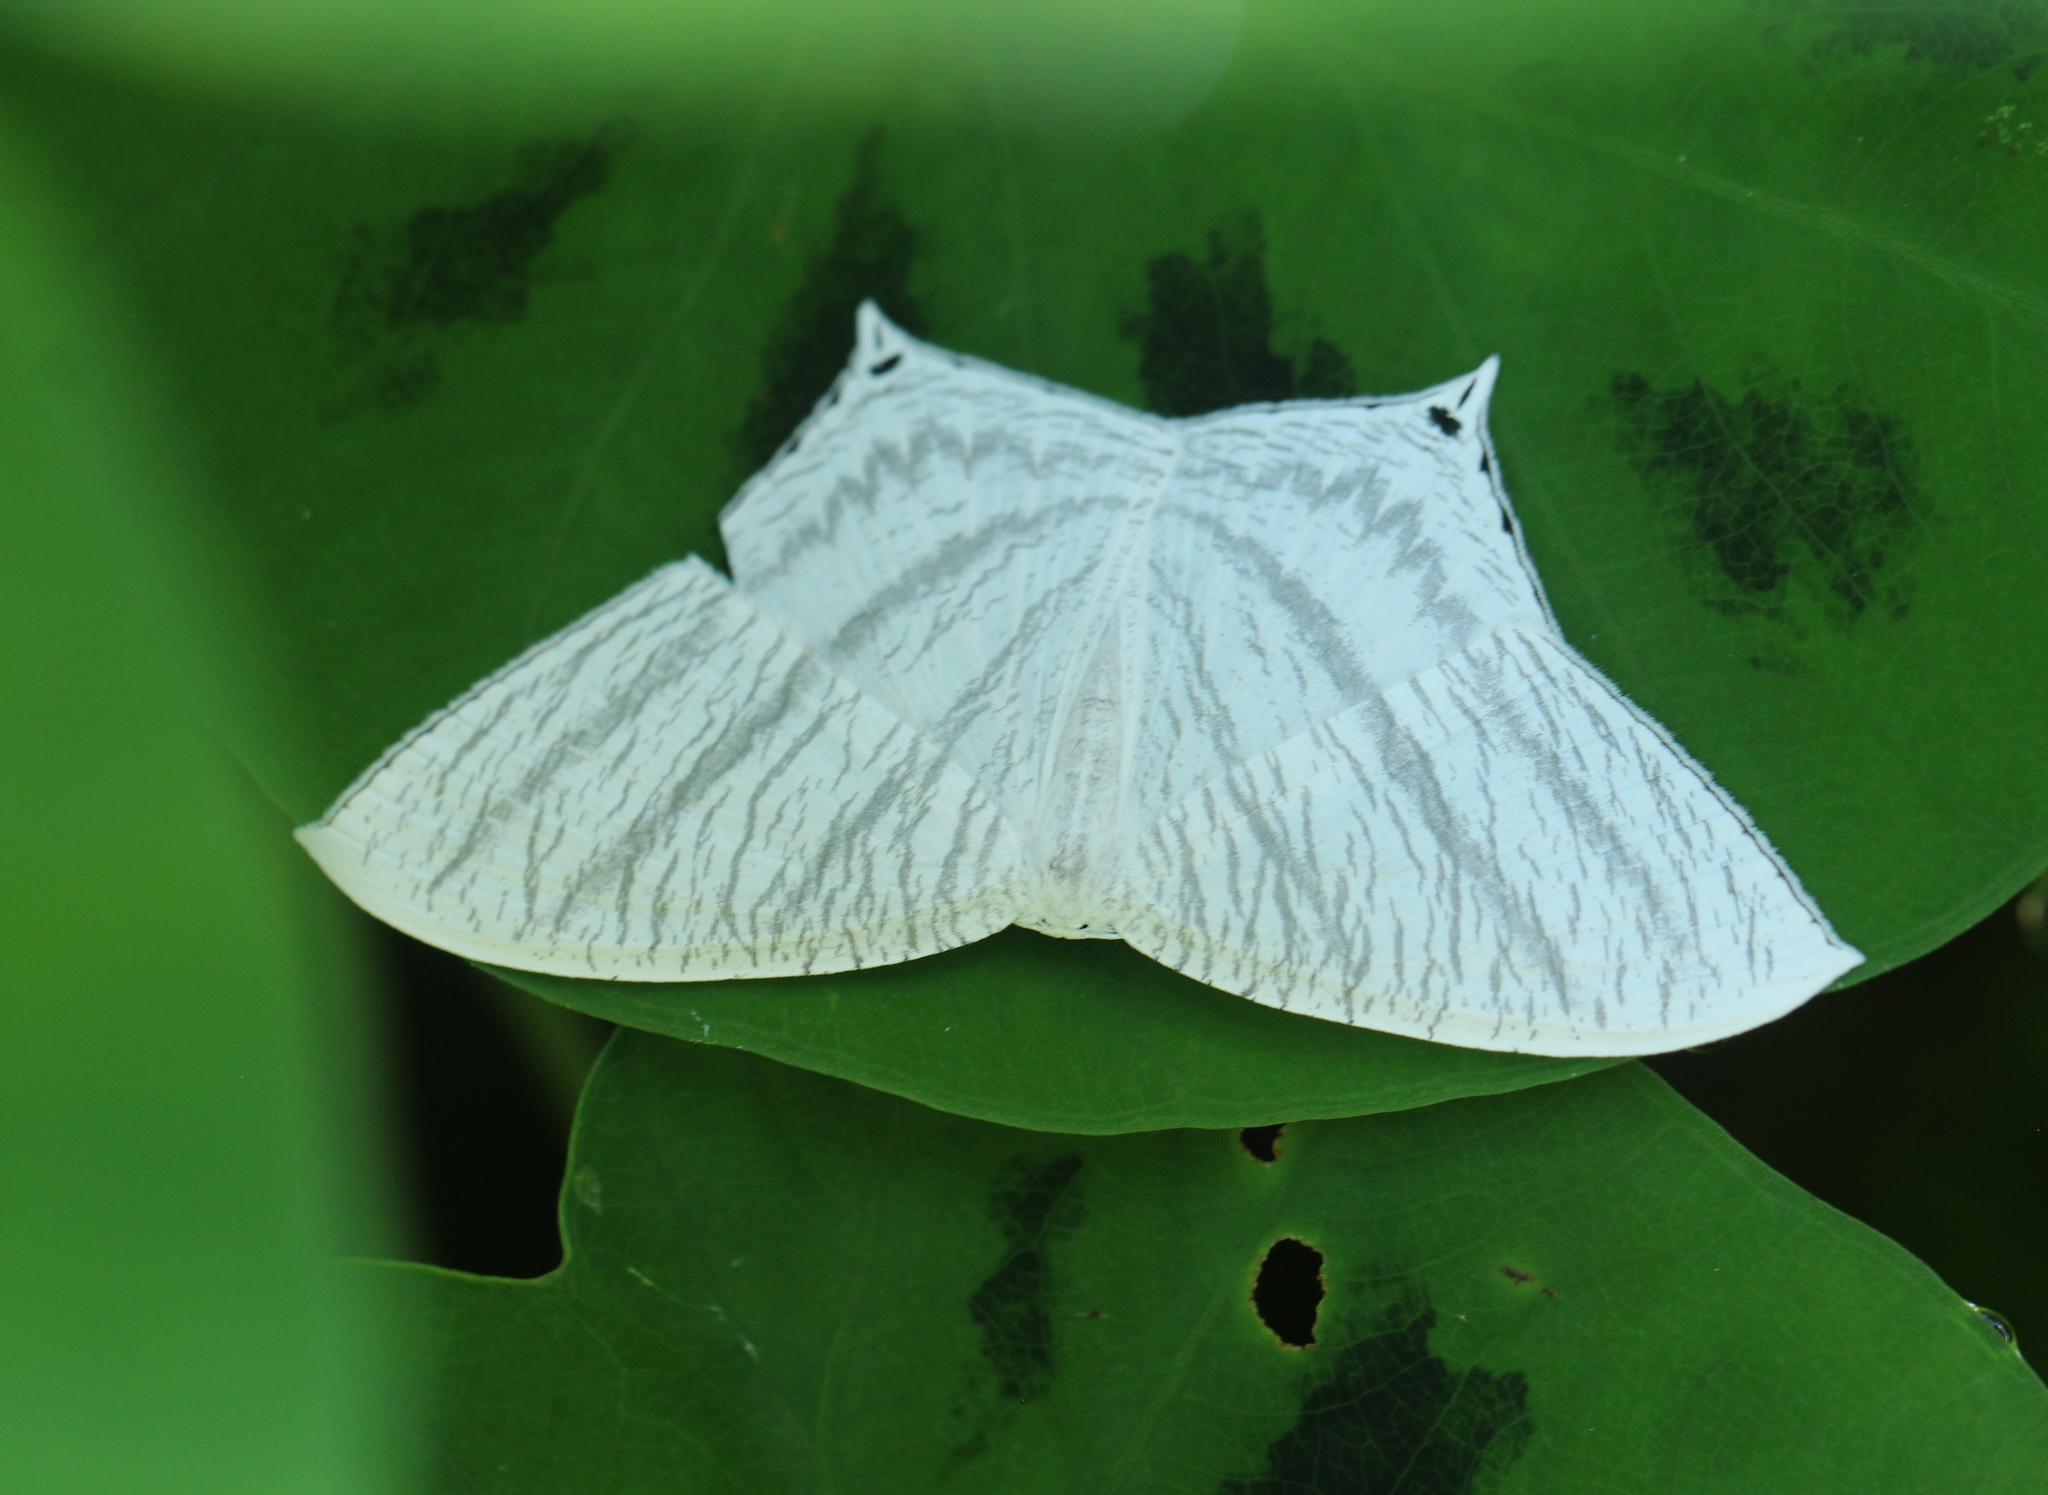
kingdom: Animalia
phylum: Arthropoda
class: Insecta
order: Lepidoptera
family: Uraniidae
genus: Micronia
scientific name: Micronia aculeata
